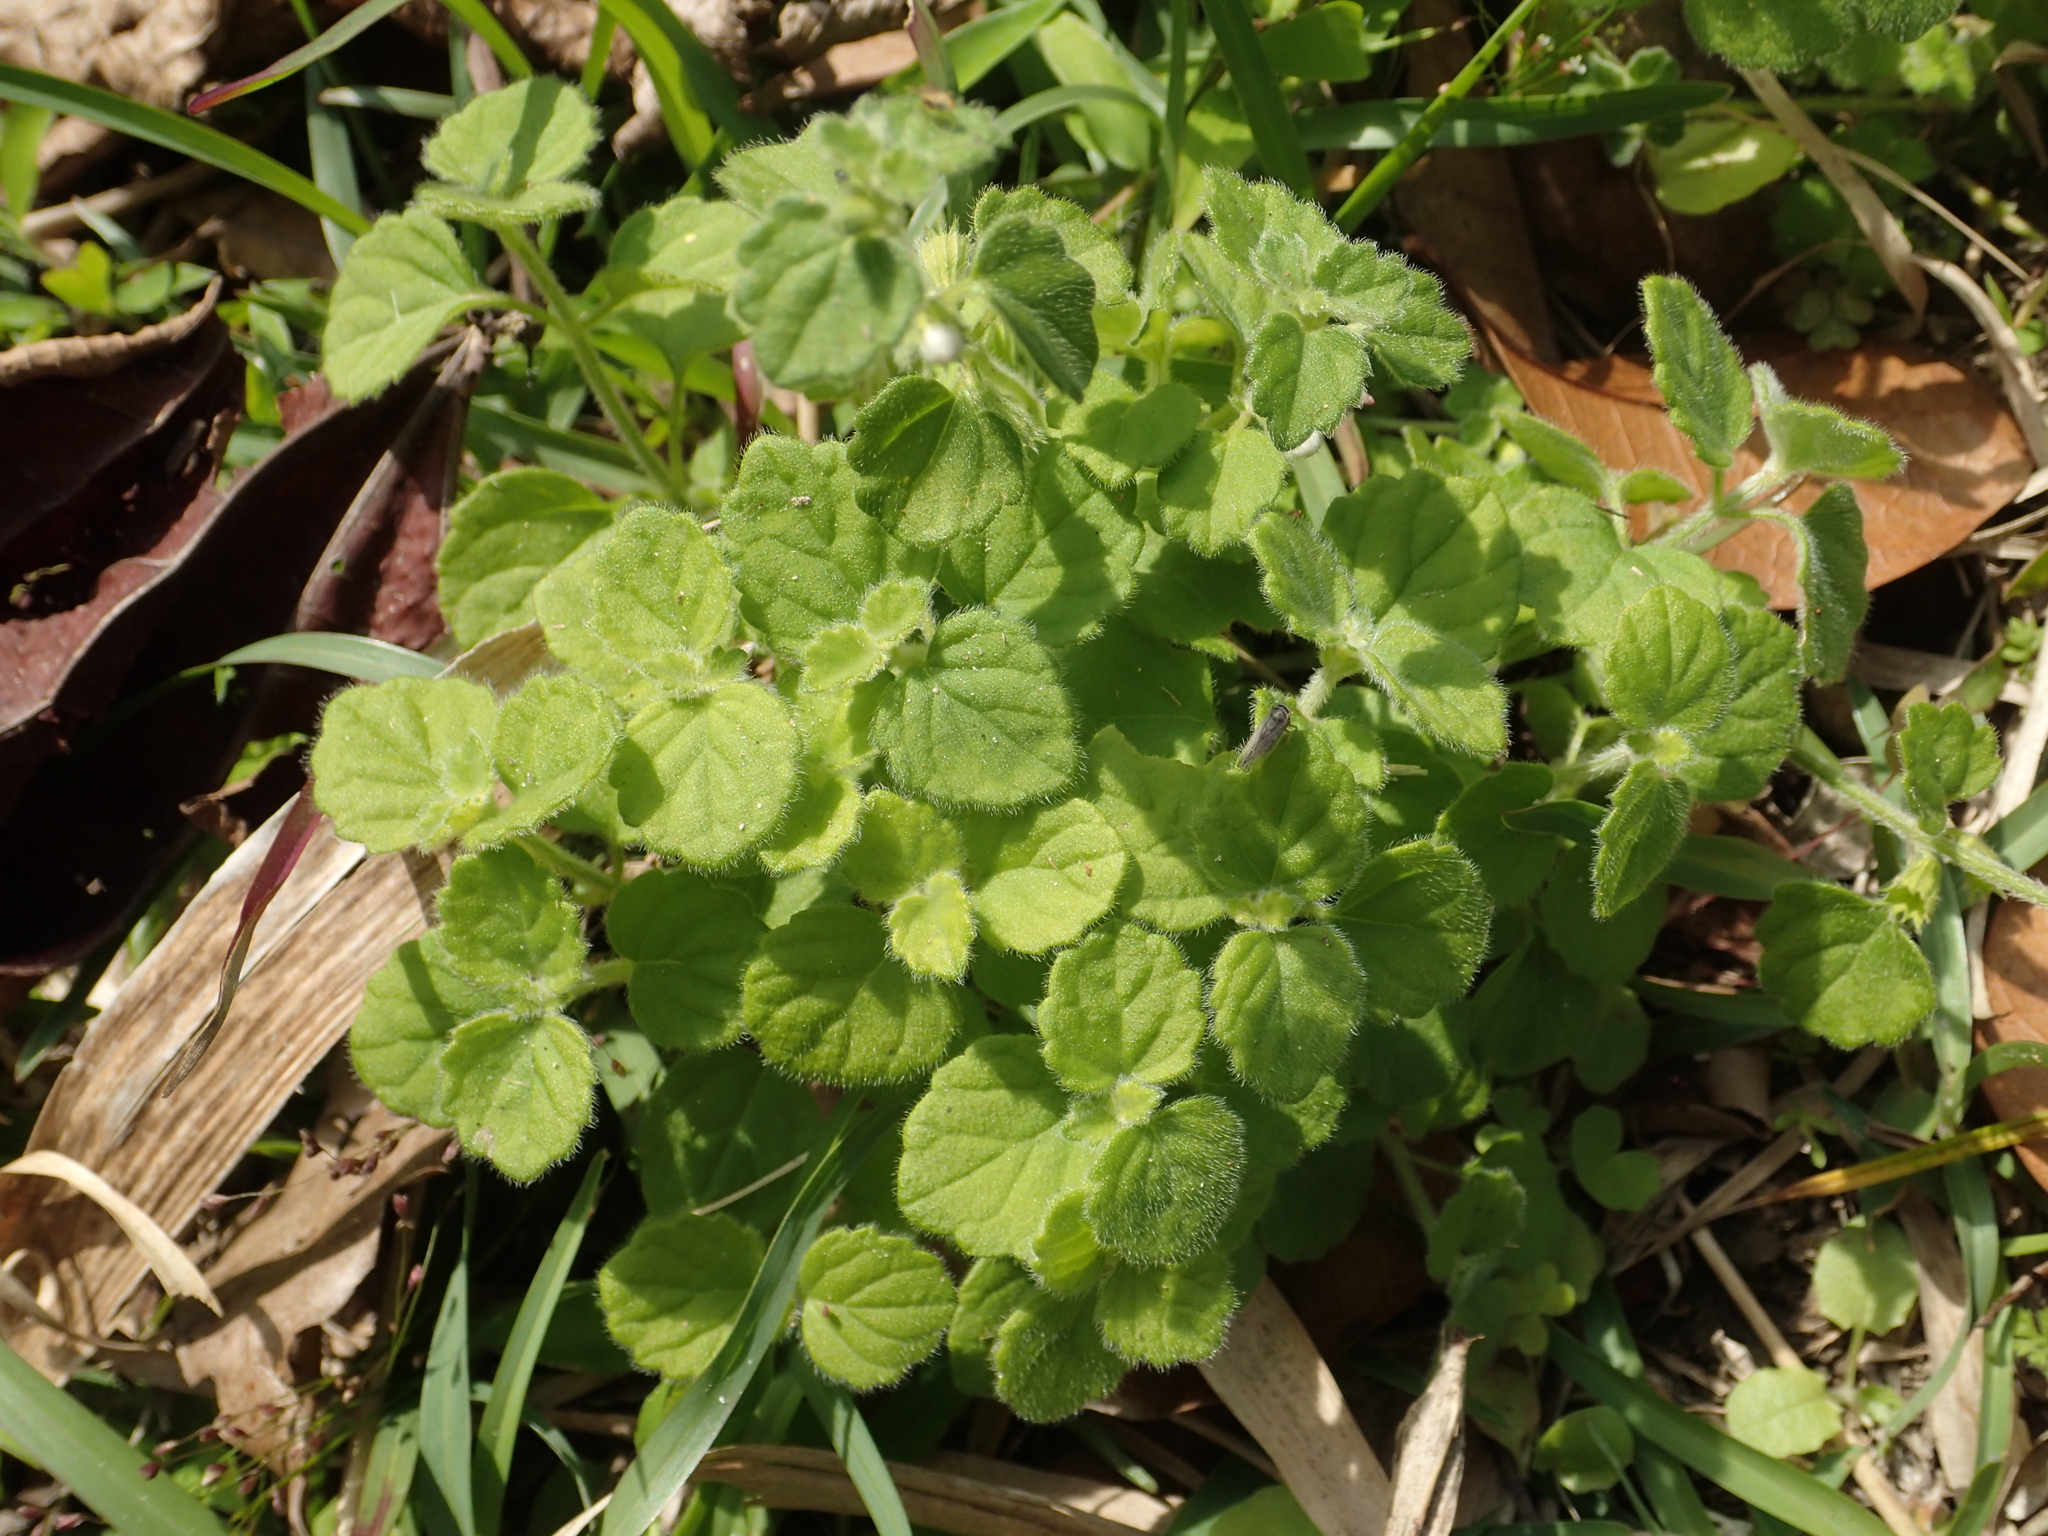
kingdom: Plantae
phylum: Tracheophyta
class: Magnoliopsida
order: Lamiales
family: Lamiaceae
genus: Leucas
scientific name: Leucas chinensis
